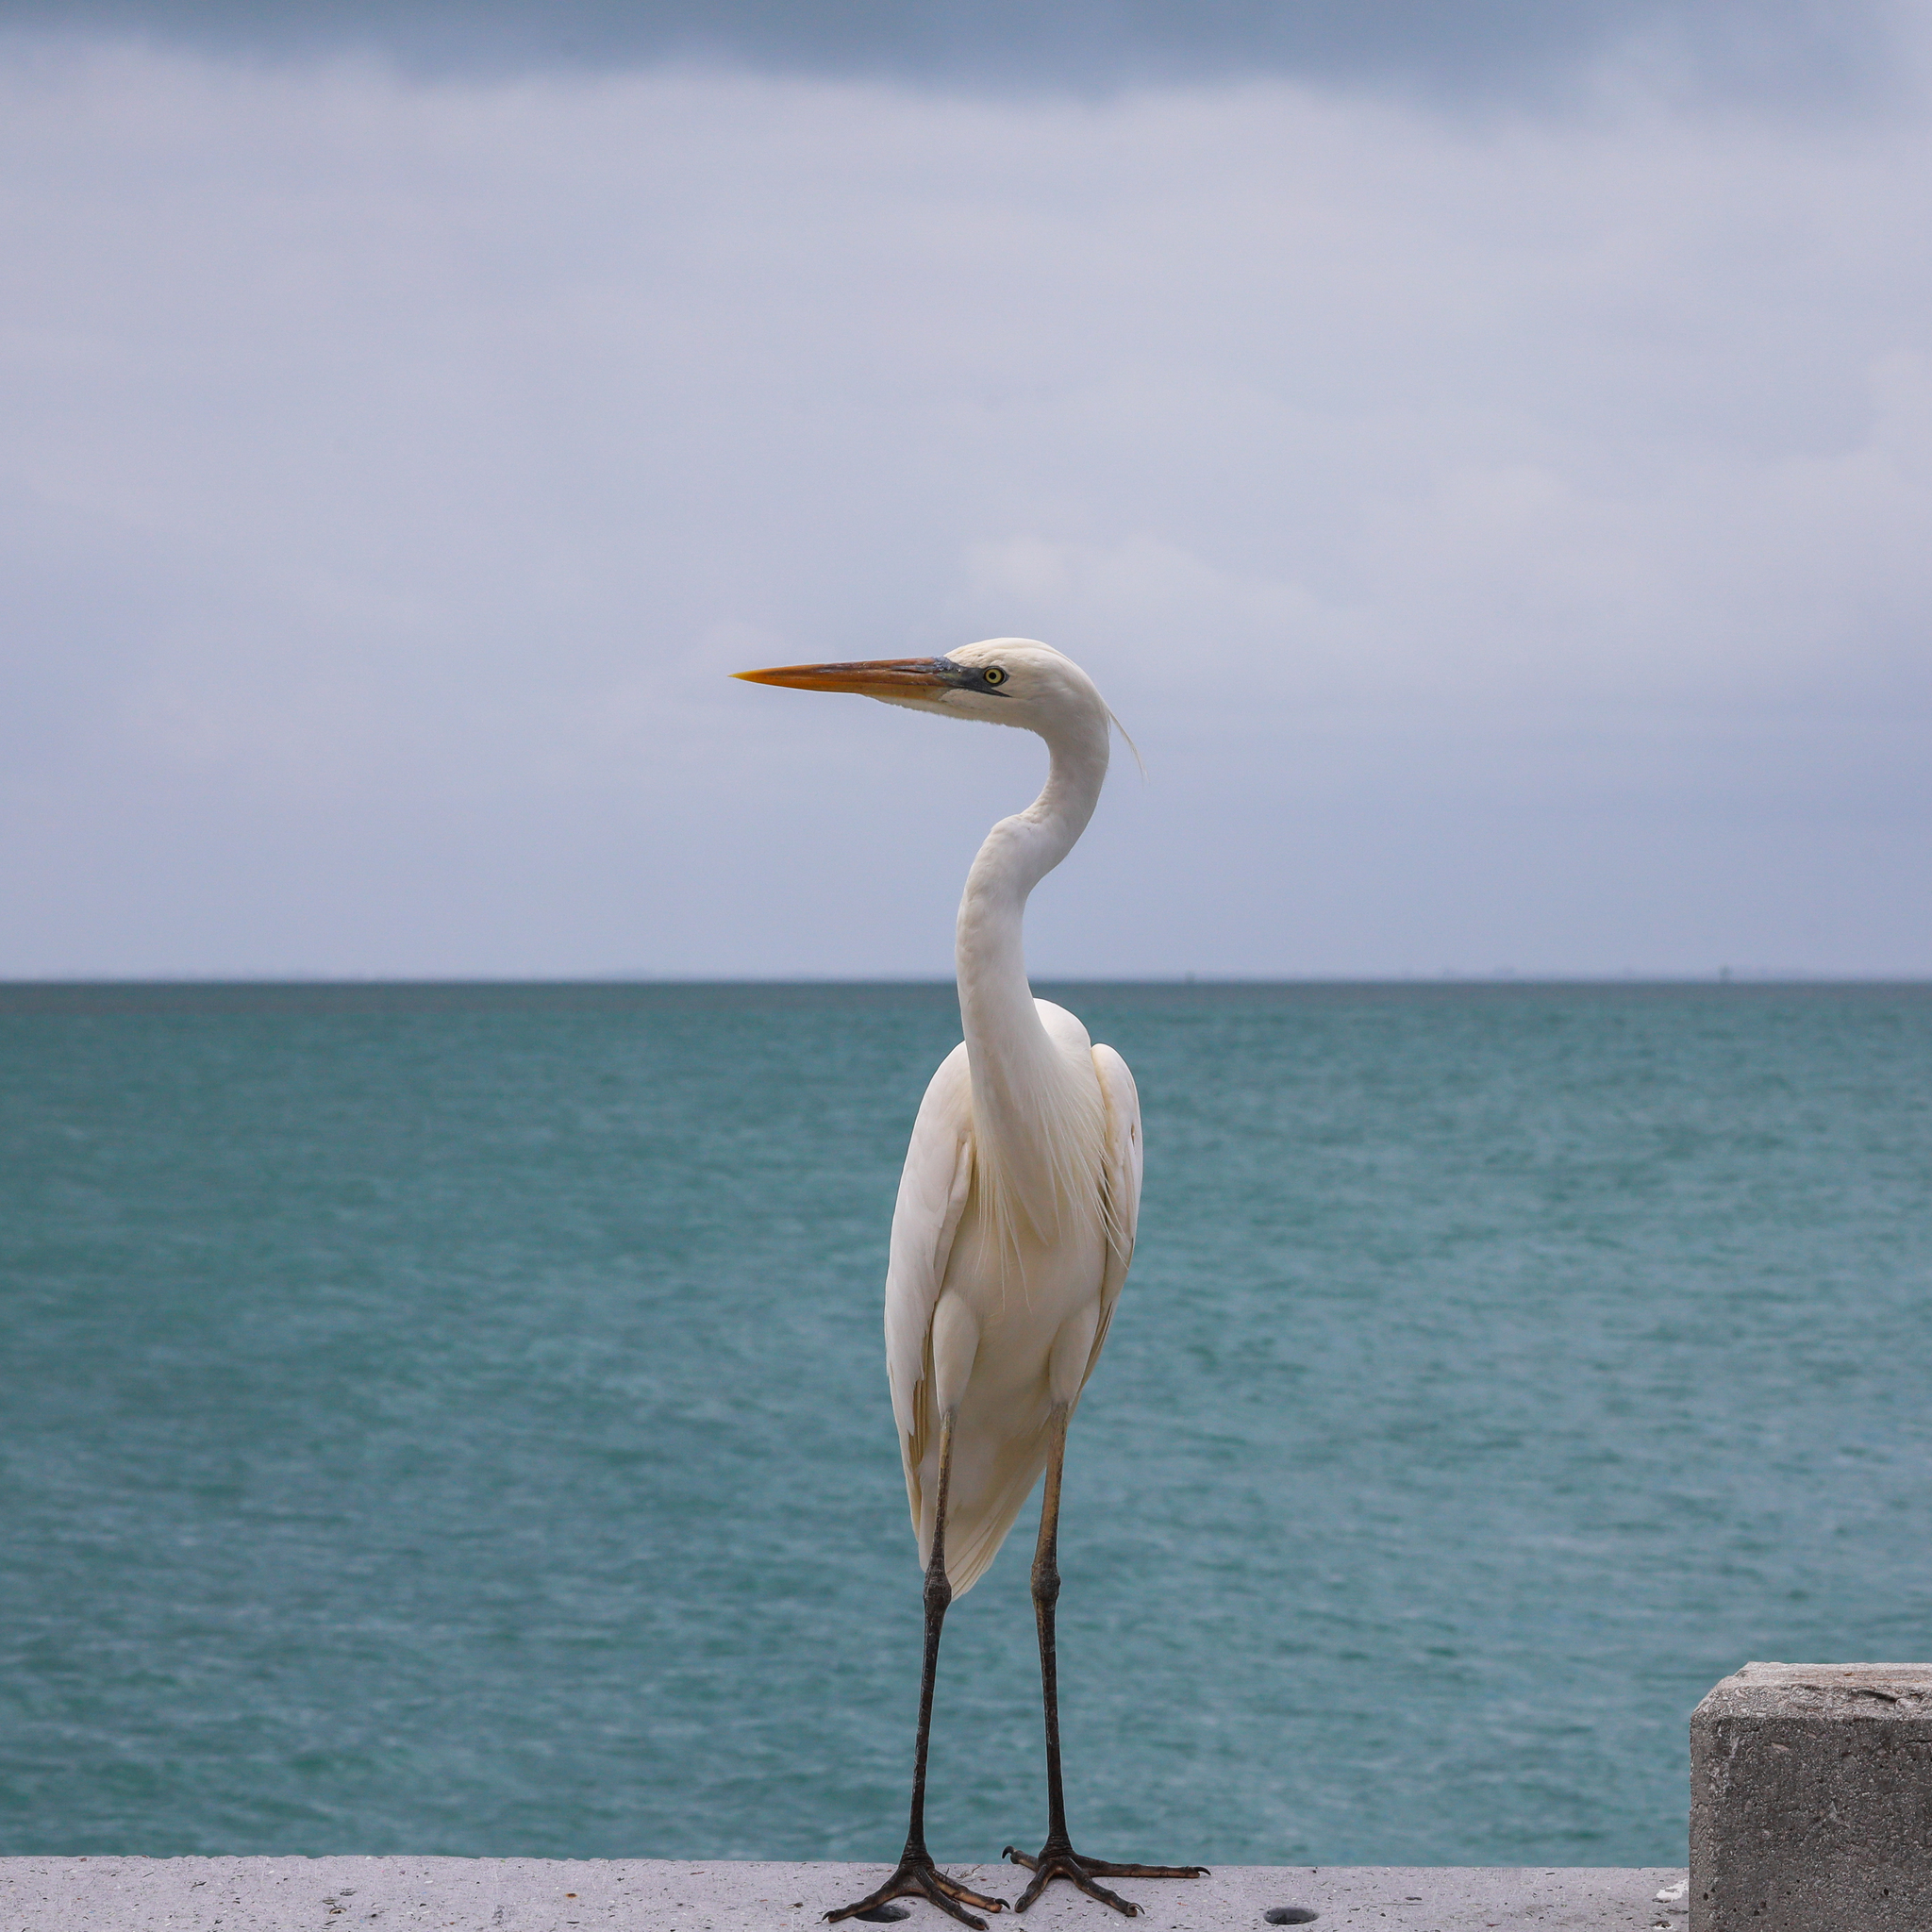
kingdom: Animalia
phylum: Chordata
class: Aves
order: Pelecaniformes
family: Ardeidae
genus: Ardea
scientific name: Ardea herodias
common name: Great blue heron
